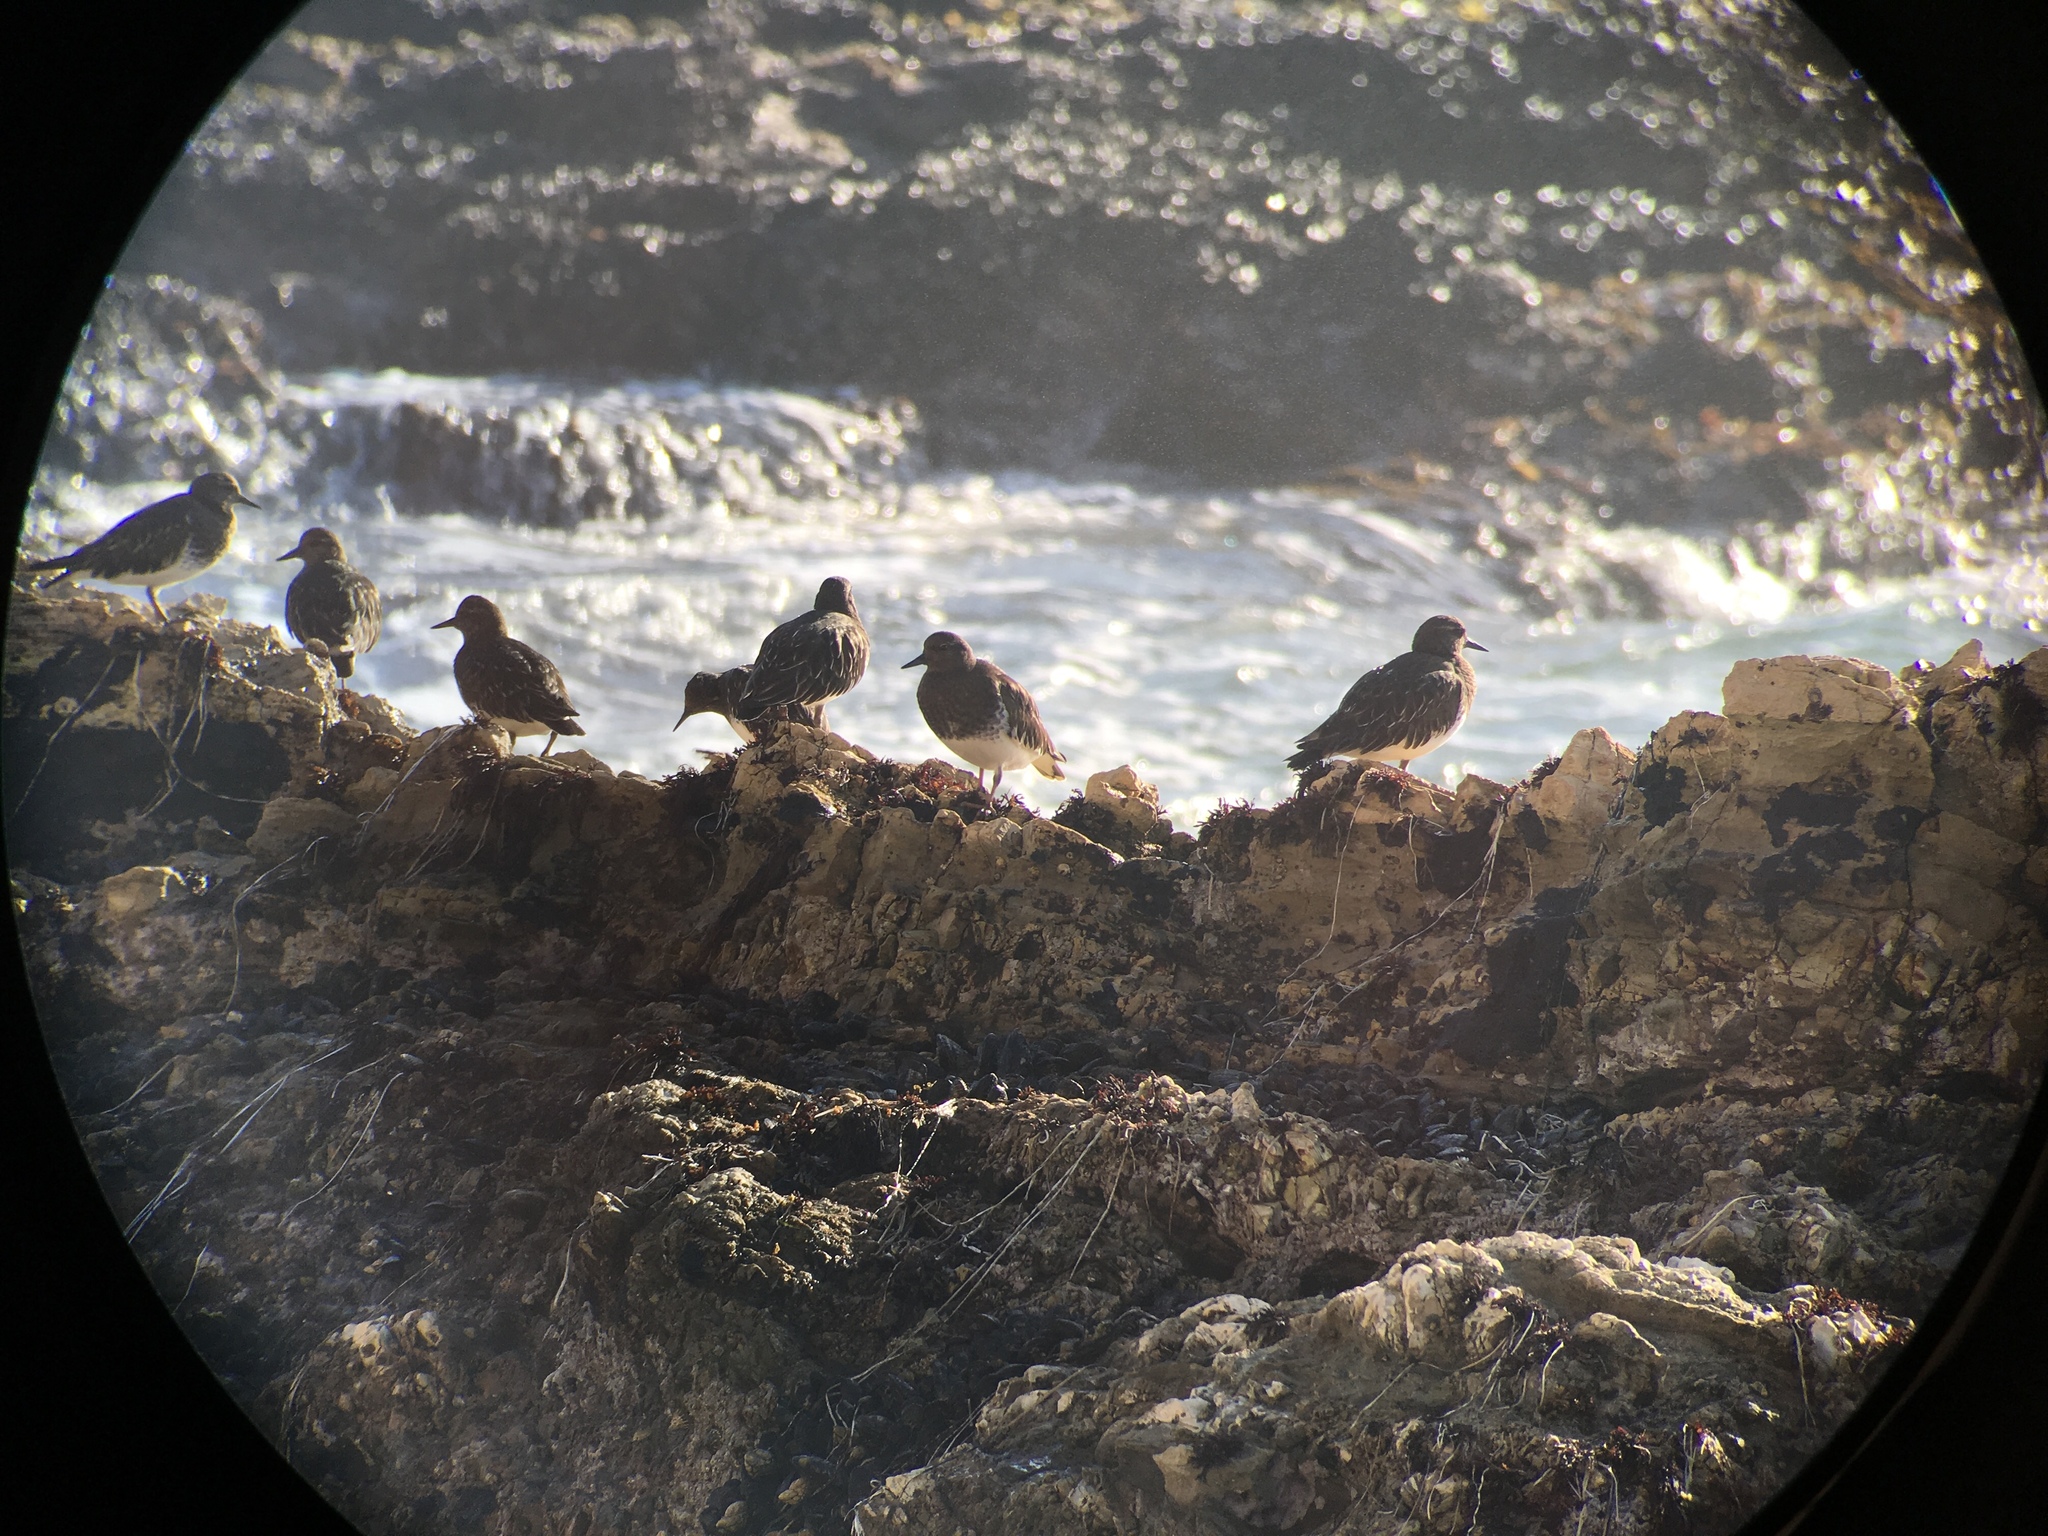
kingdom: Animalia
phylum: Chordata
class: Aves
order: Charadriiformes
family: Scolopacidae
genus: Arenaria
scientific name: Arenaria melanocephala
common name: Black turnstone
